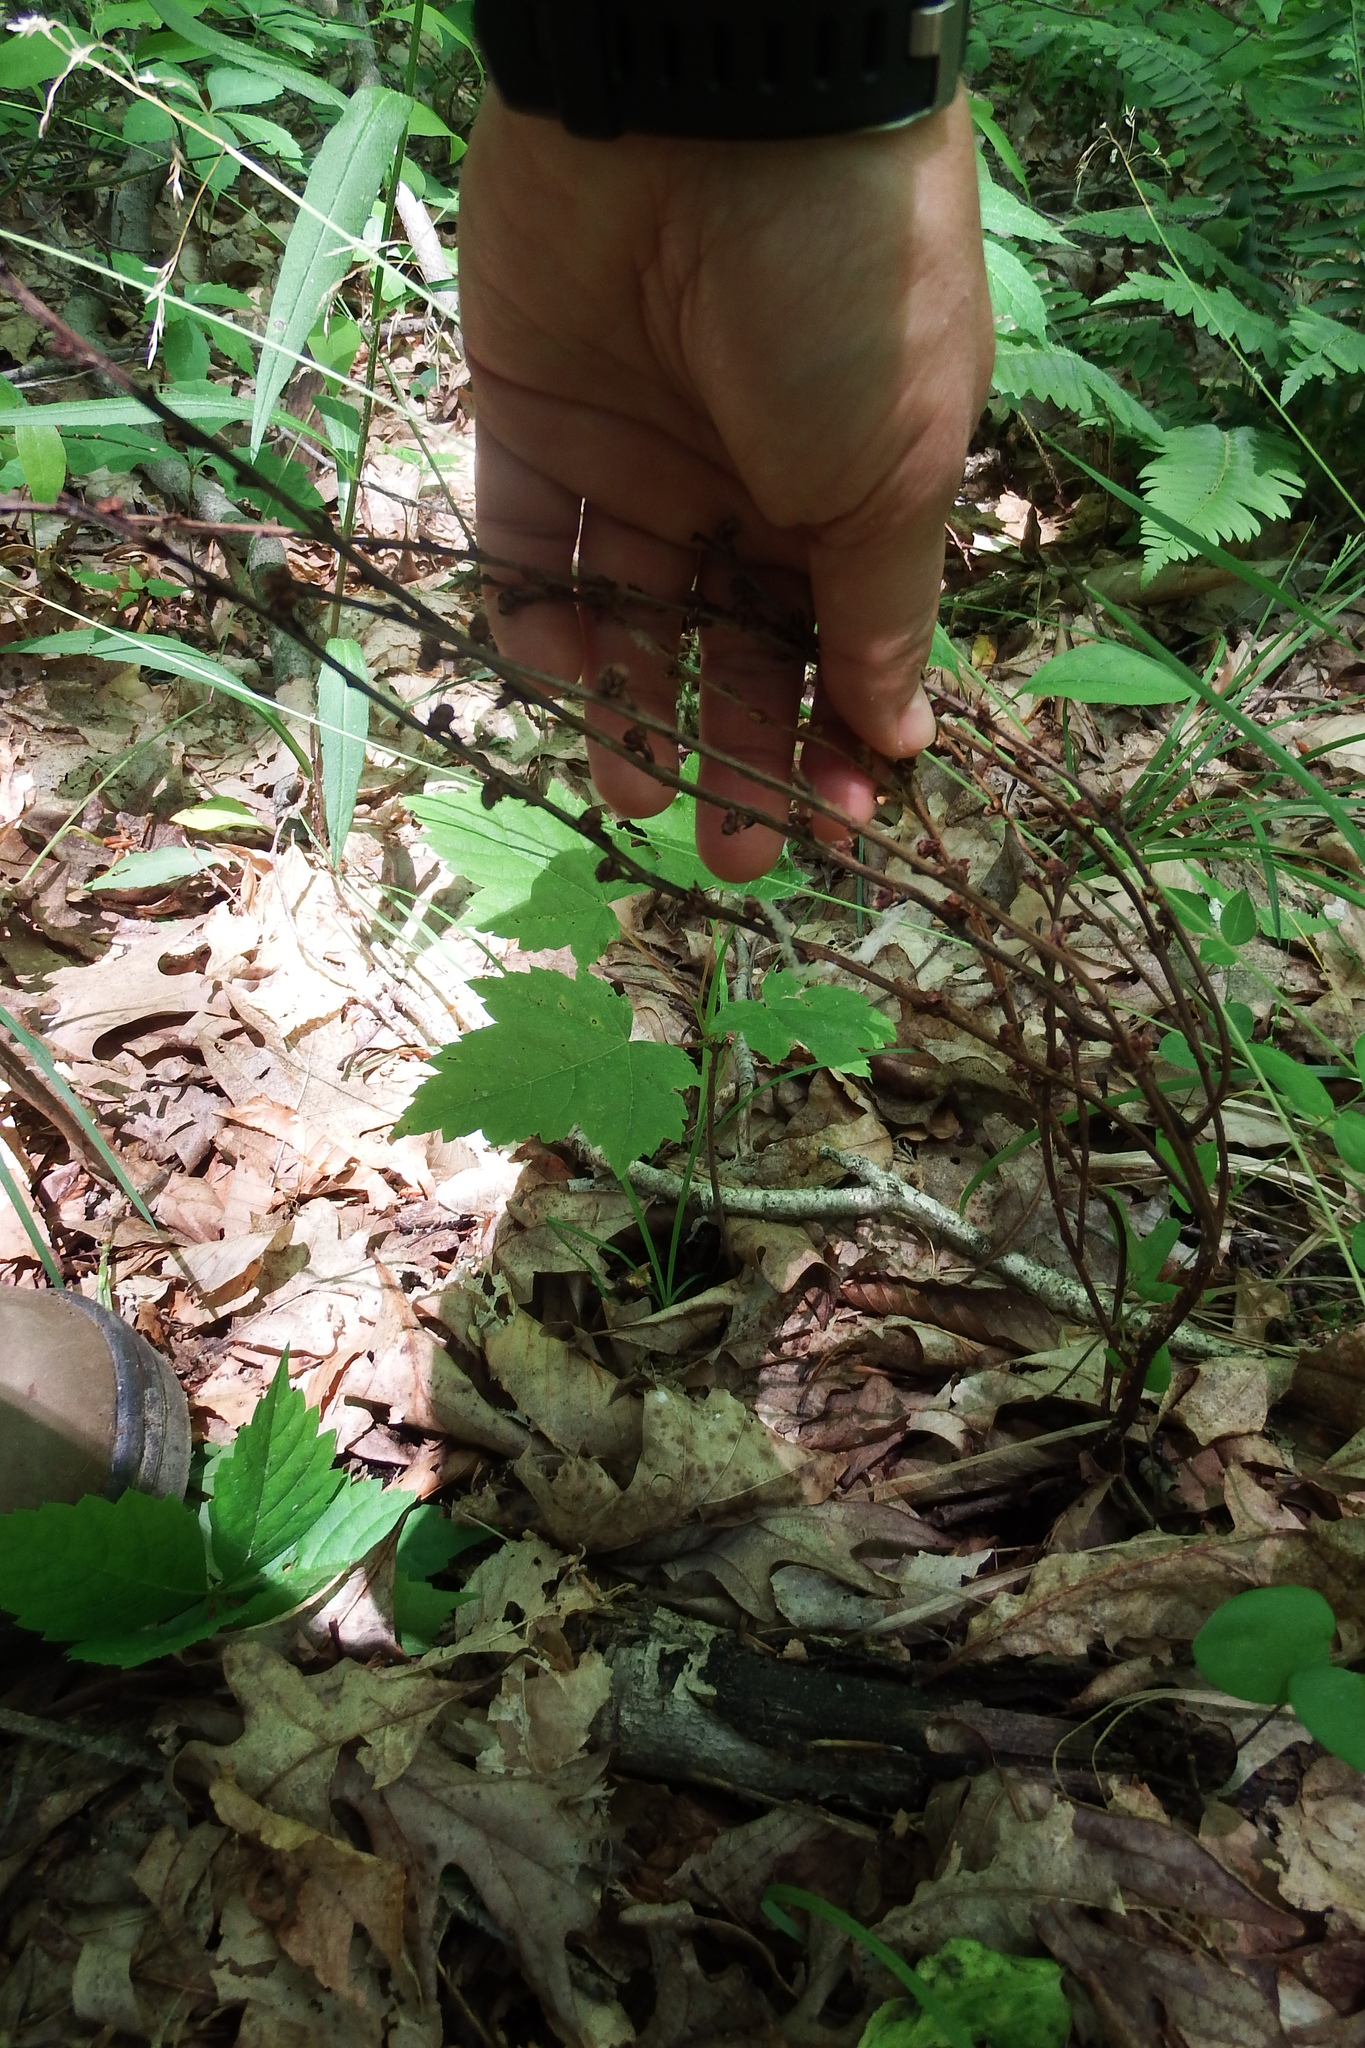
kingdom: Plantae
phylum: Tracheophyta
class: Magnoliopsida
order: Lamiales
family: Orobanchaceae
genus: Epifagus
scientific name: Epifagus virginiana
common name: Beechdrops
